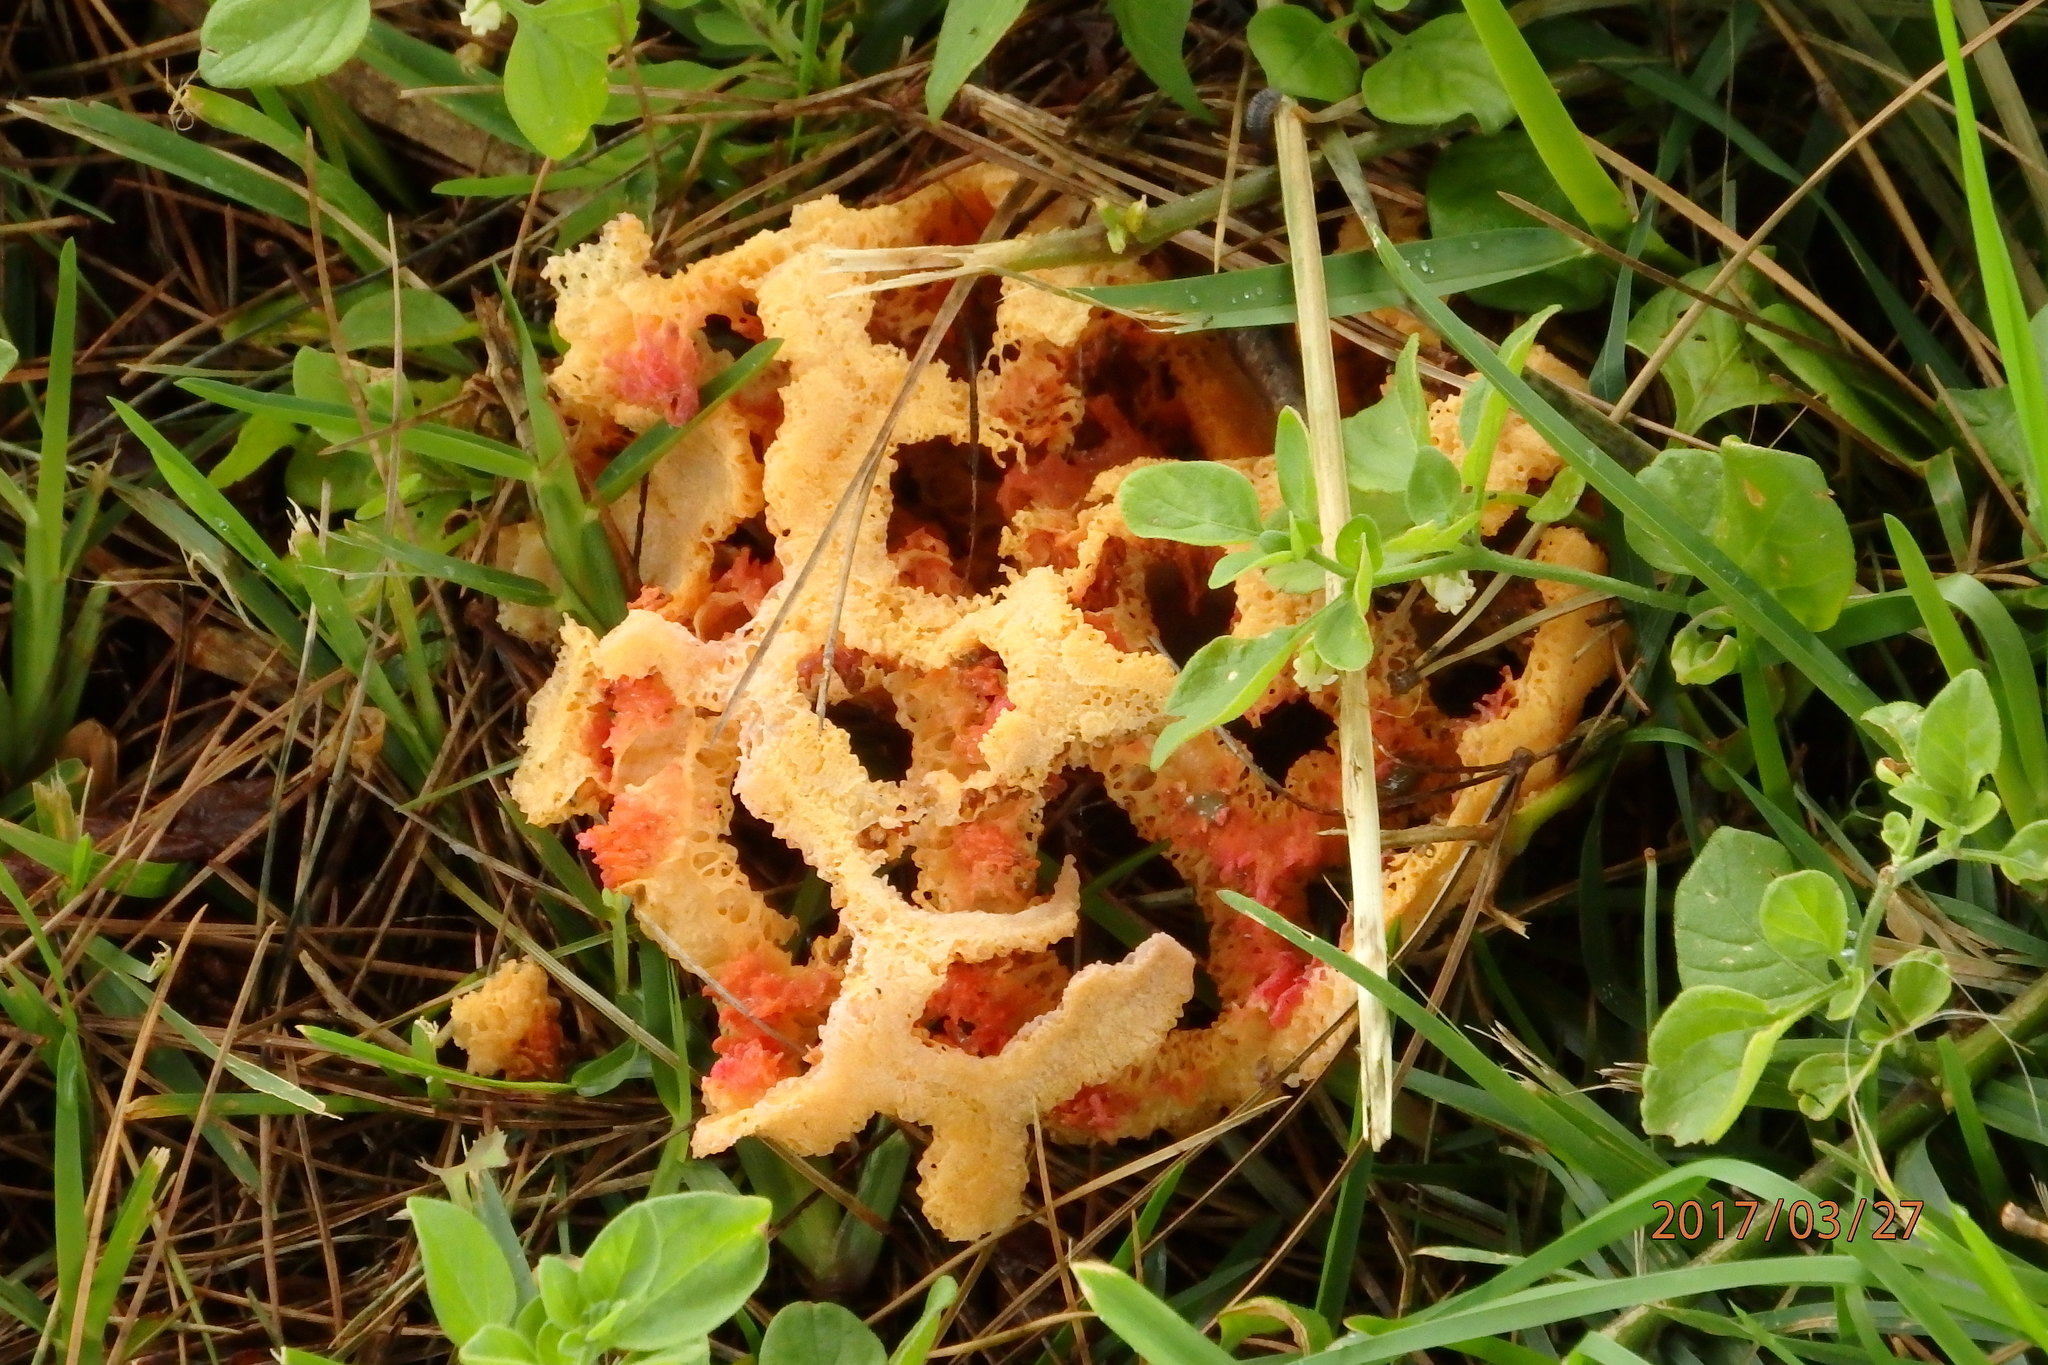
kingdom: Fungi
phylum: Basidiomycota
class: Agaricomycetes
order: Phallales
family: Phallaceae
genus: Clathrus
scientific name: Clathrus ruber
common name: Red cage
